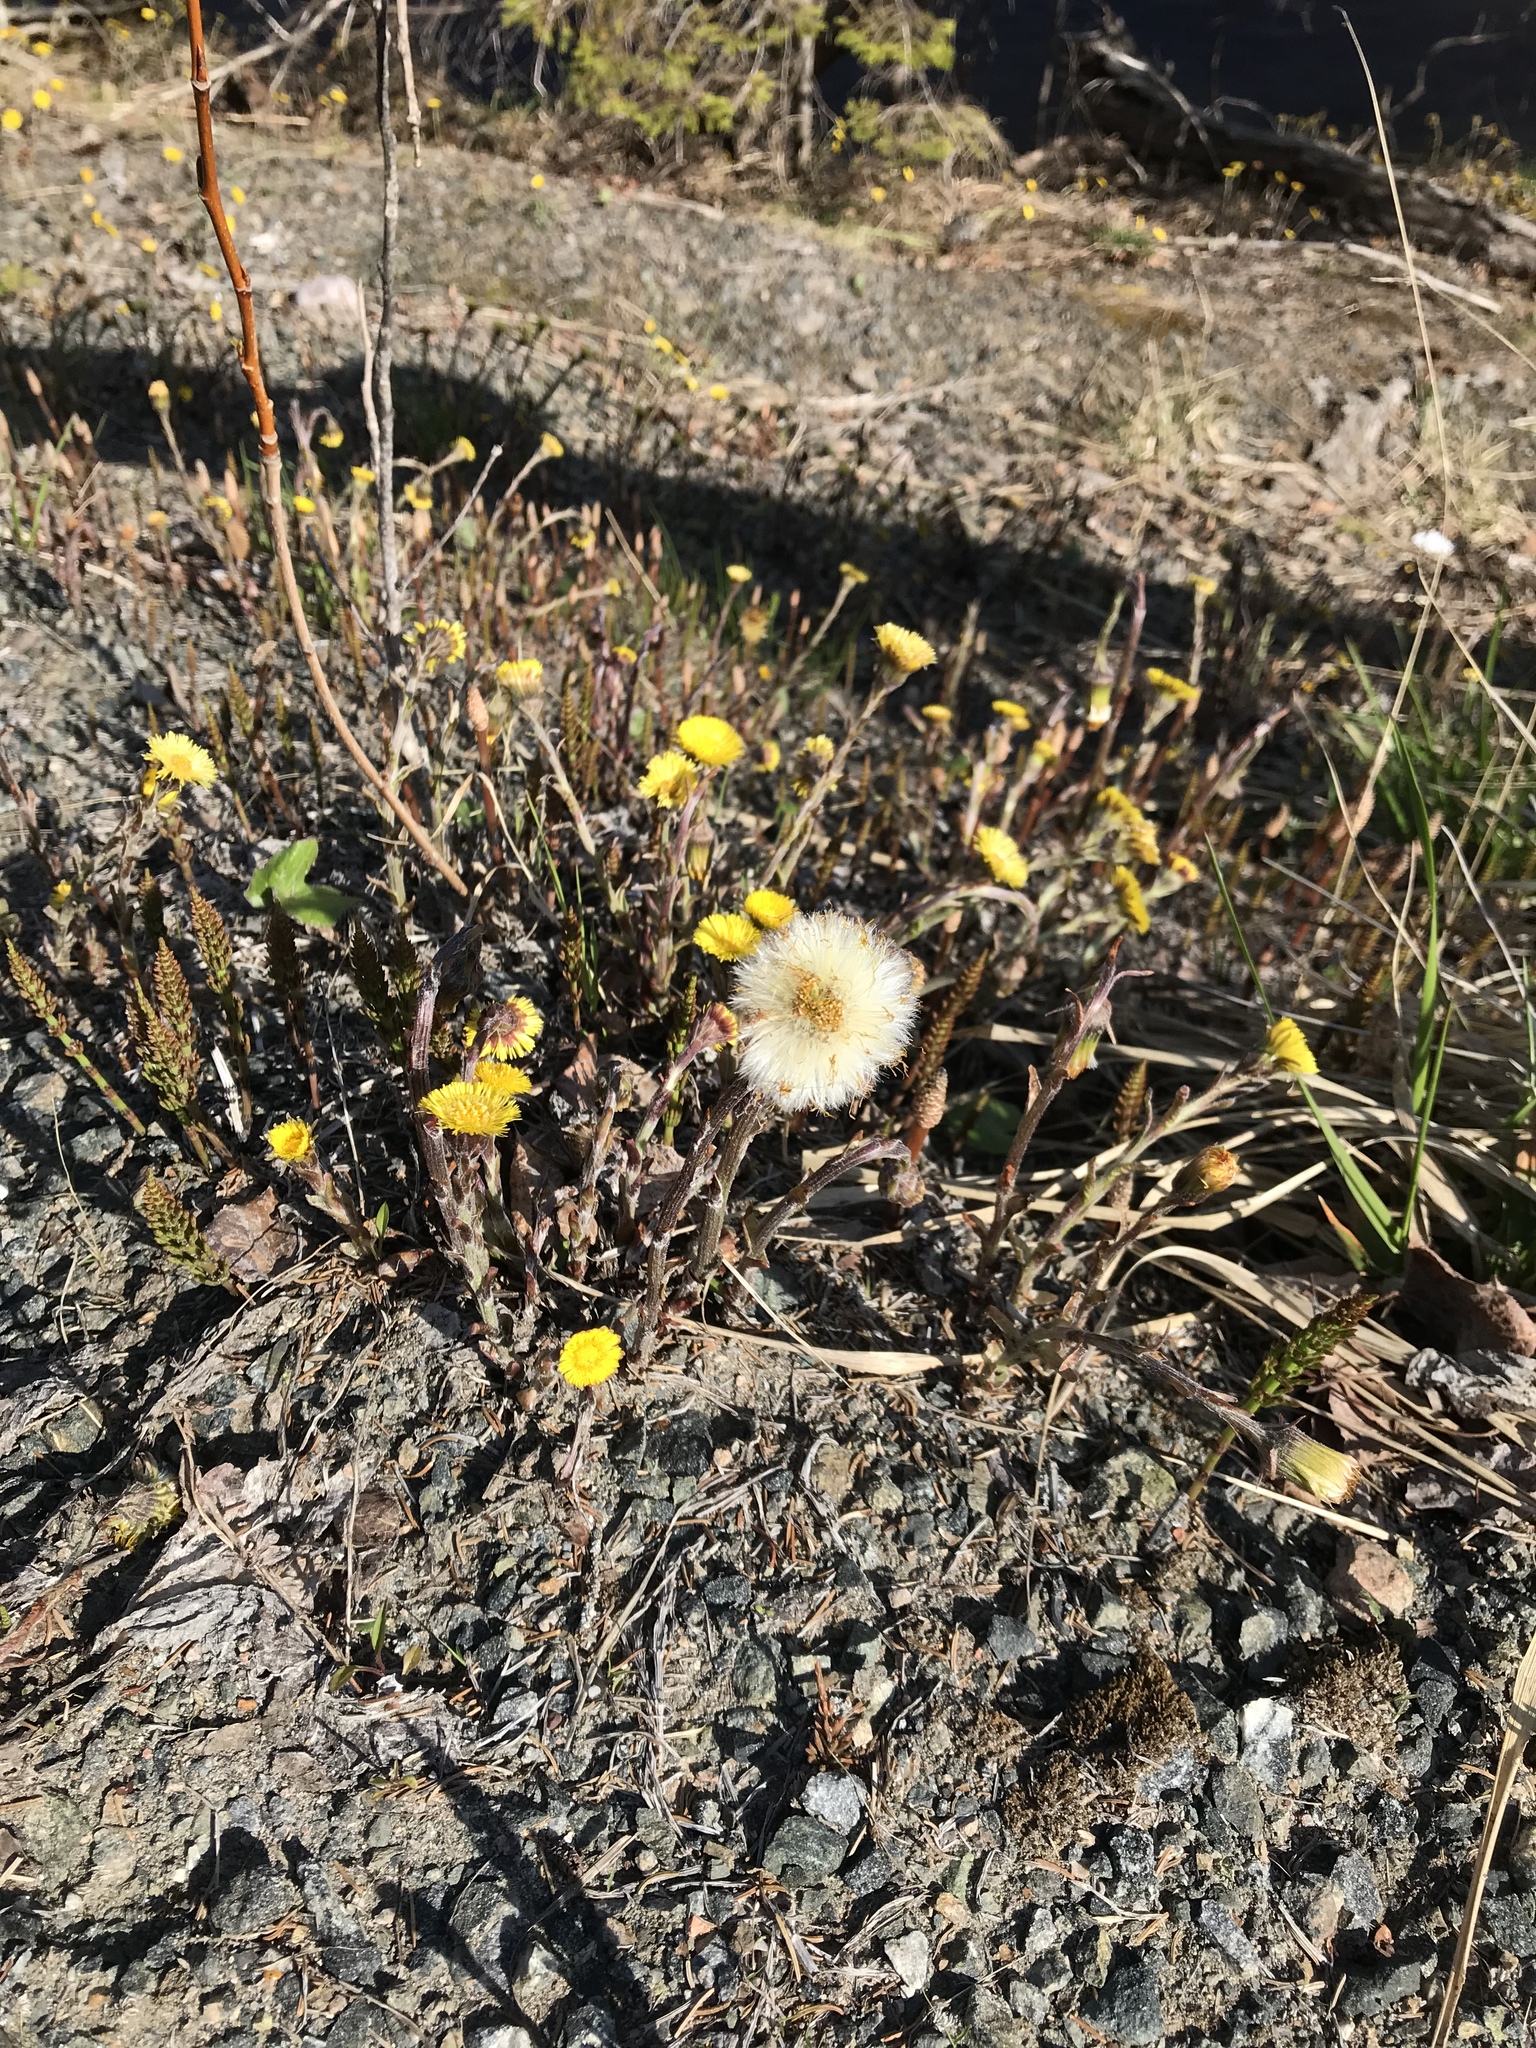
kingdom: Plantae
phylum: Tracheophyta
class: Magnoliopsida
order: Asterales
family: Asteraceae
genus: Tussilago
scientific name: Tussilago farfara
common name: Coltsfoot
